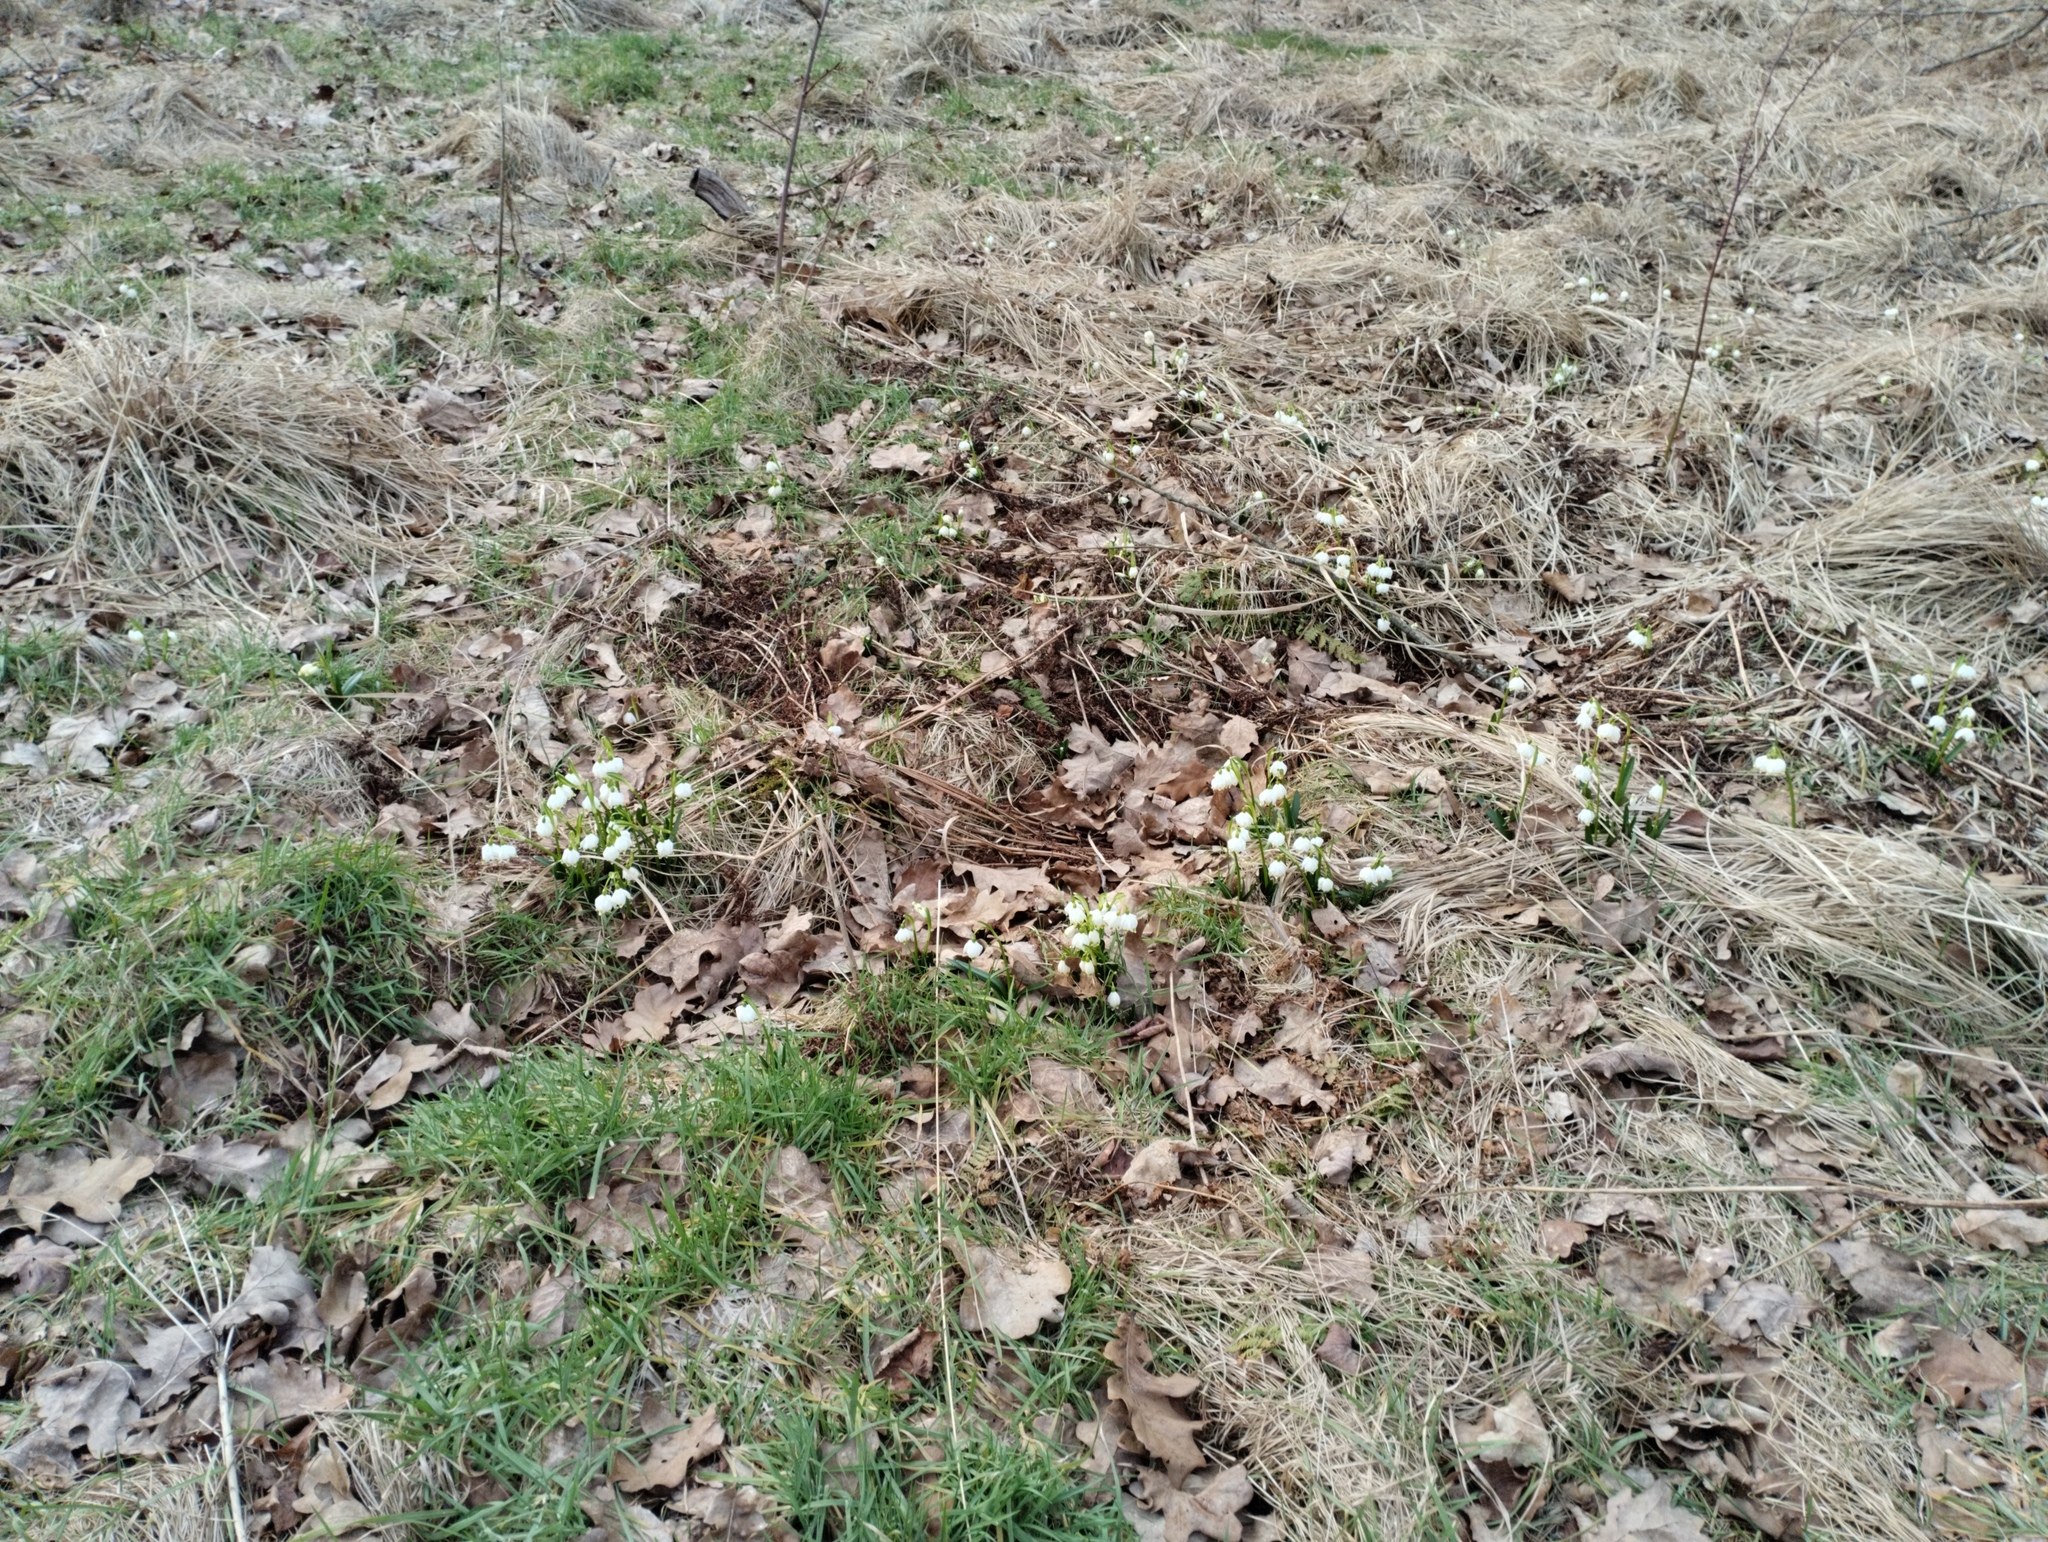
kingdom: Plantae
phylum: Tracheophyta
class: Liliopsida
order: Asparagales
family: Amaryllidaceae
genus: Leucojum
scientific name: Leucojum vernum
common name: Spring snowflake
